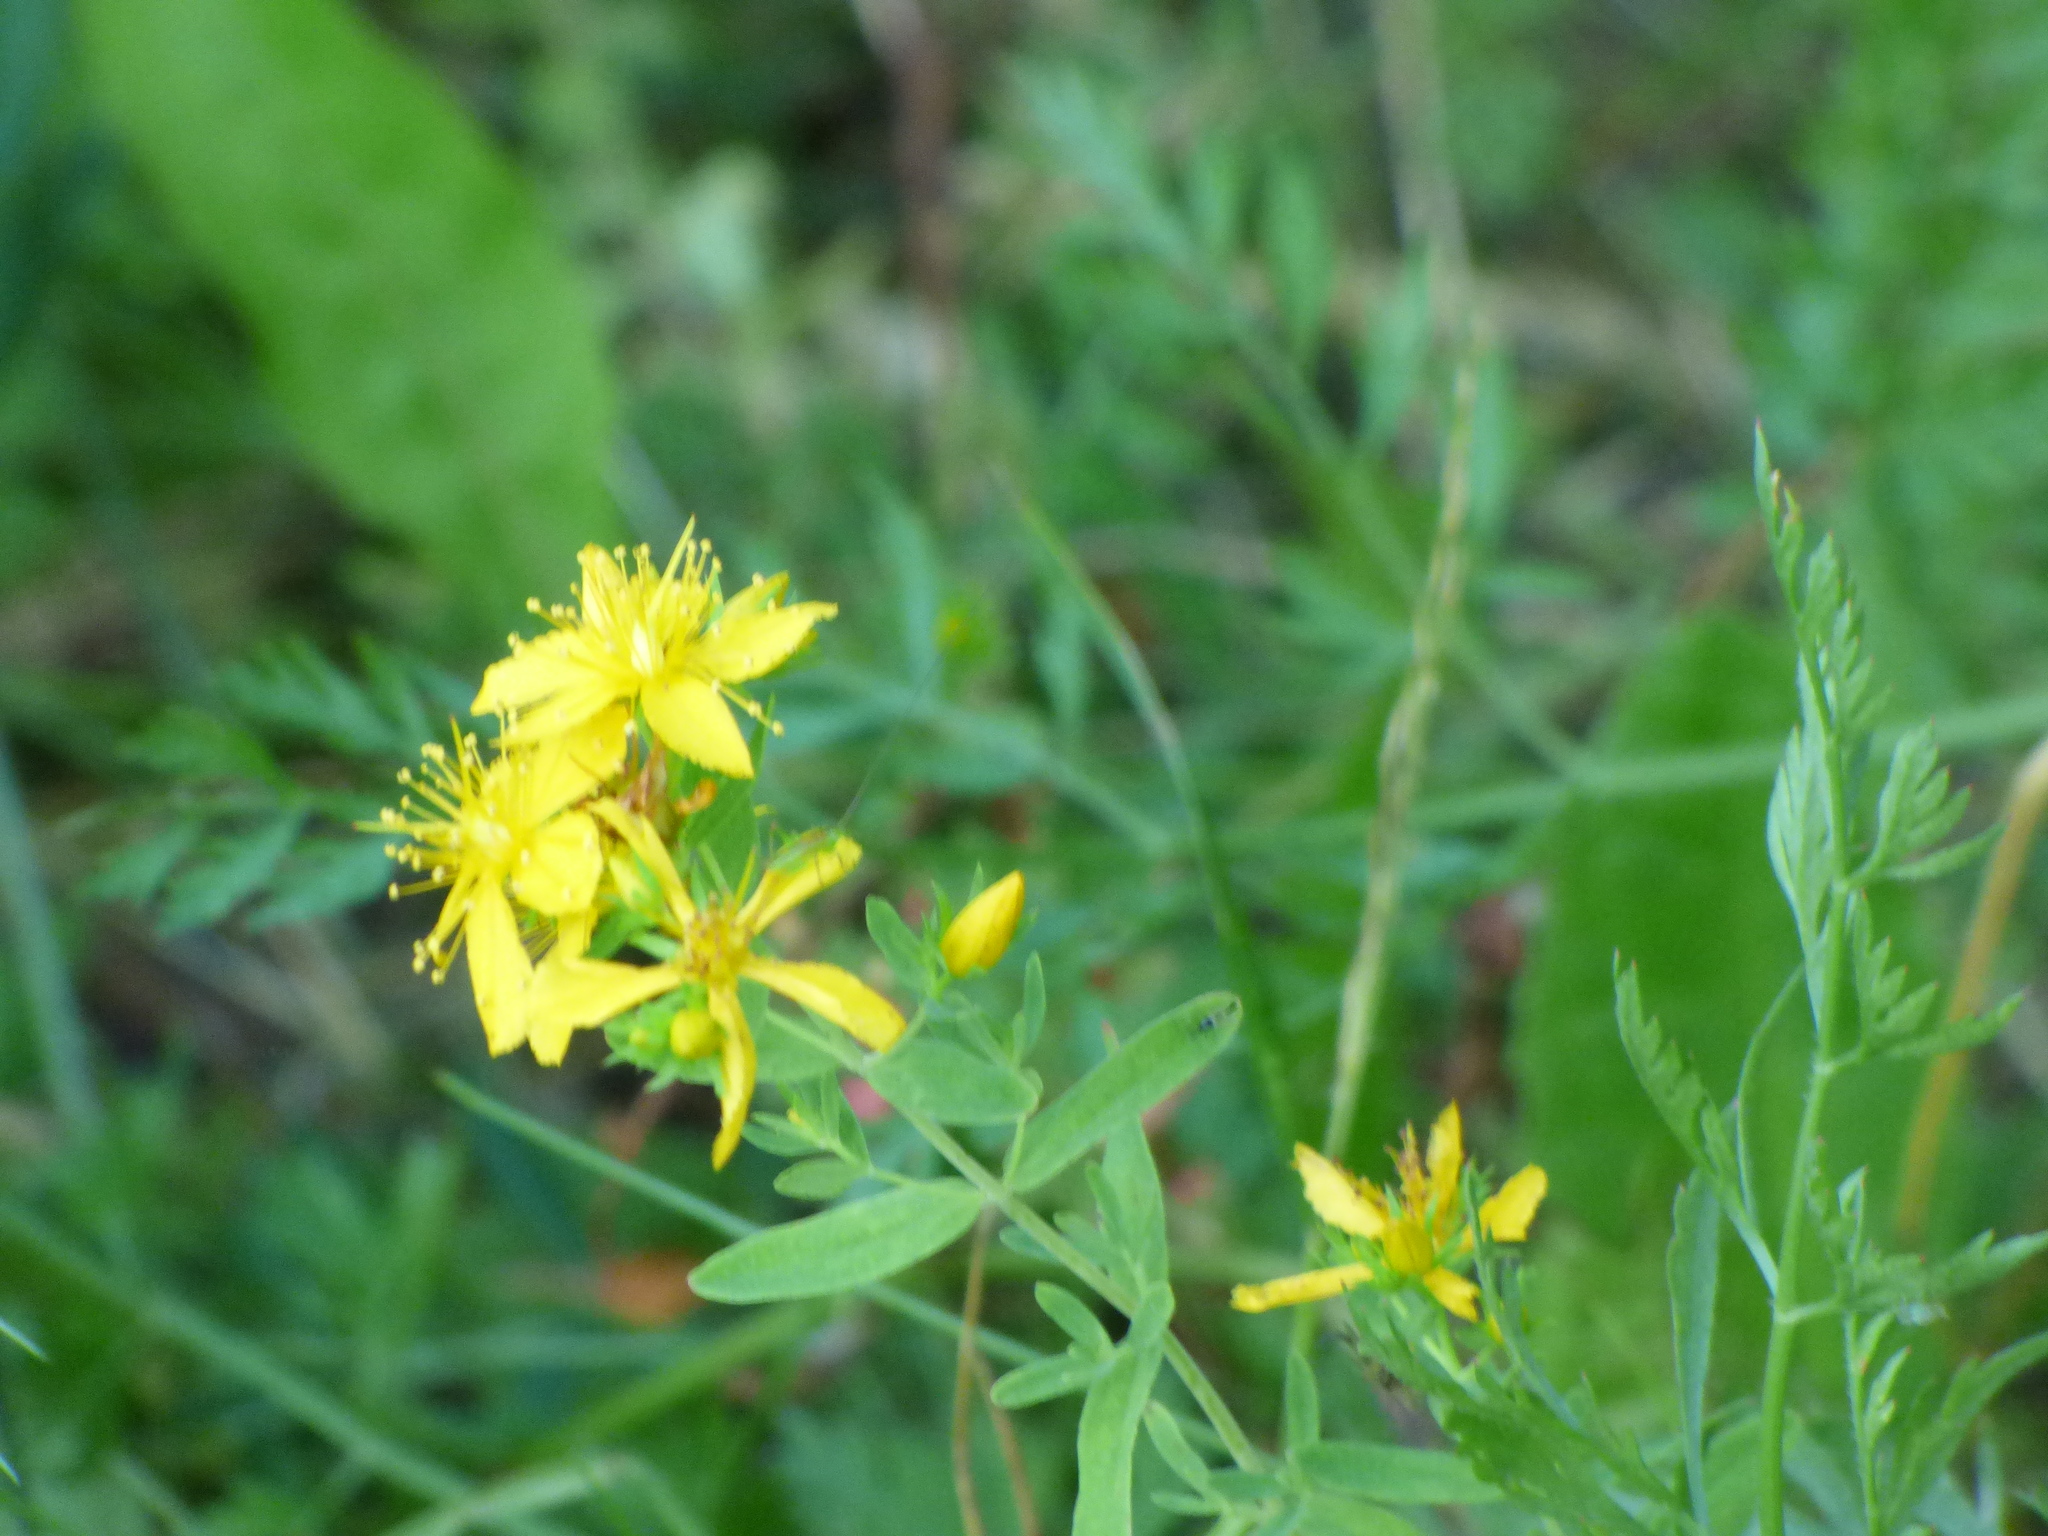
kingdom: Plantae
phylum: Tracheophyta
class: Magnoliopsida
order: Malpighiales
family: Hypericaceae
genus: Hypericum
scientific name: Hypericum perforatum
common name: Common st. johnswort
